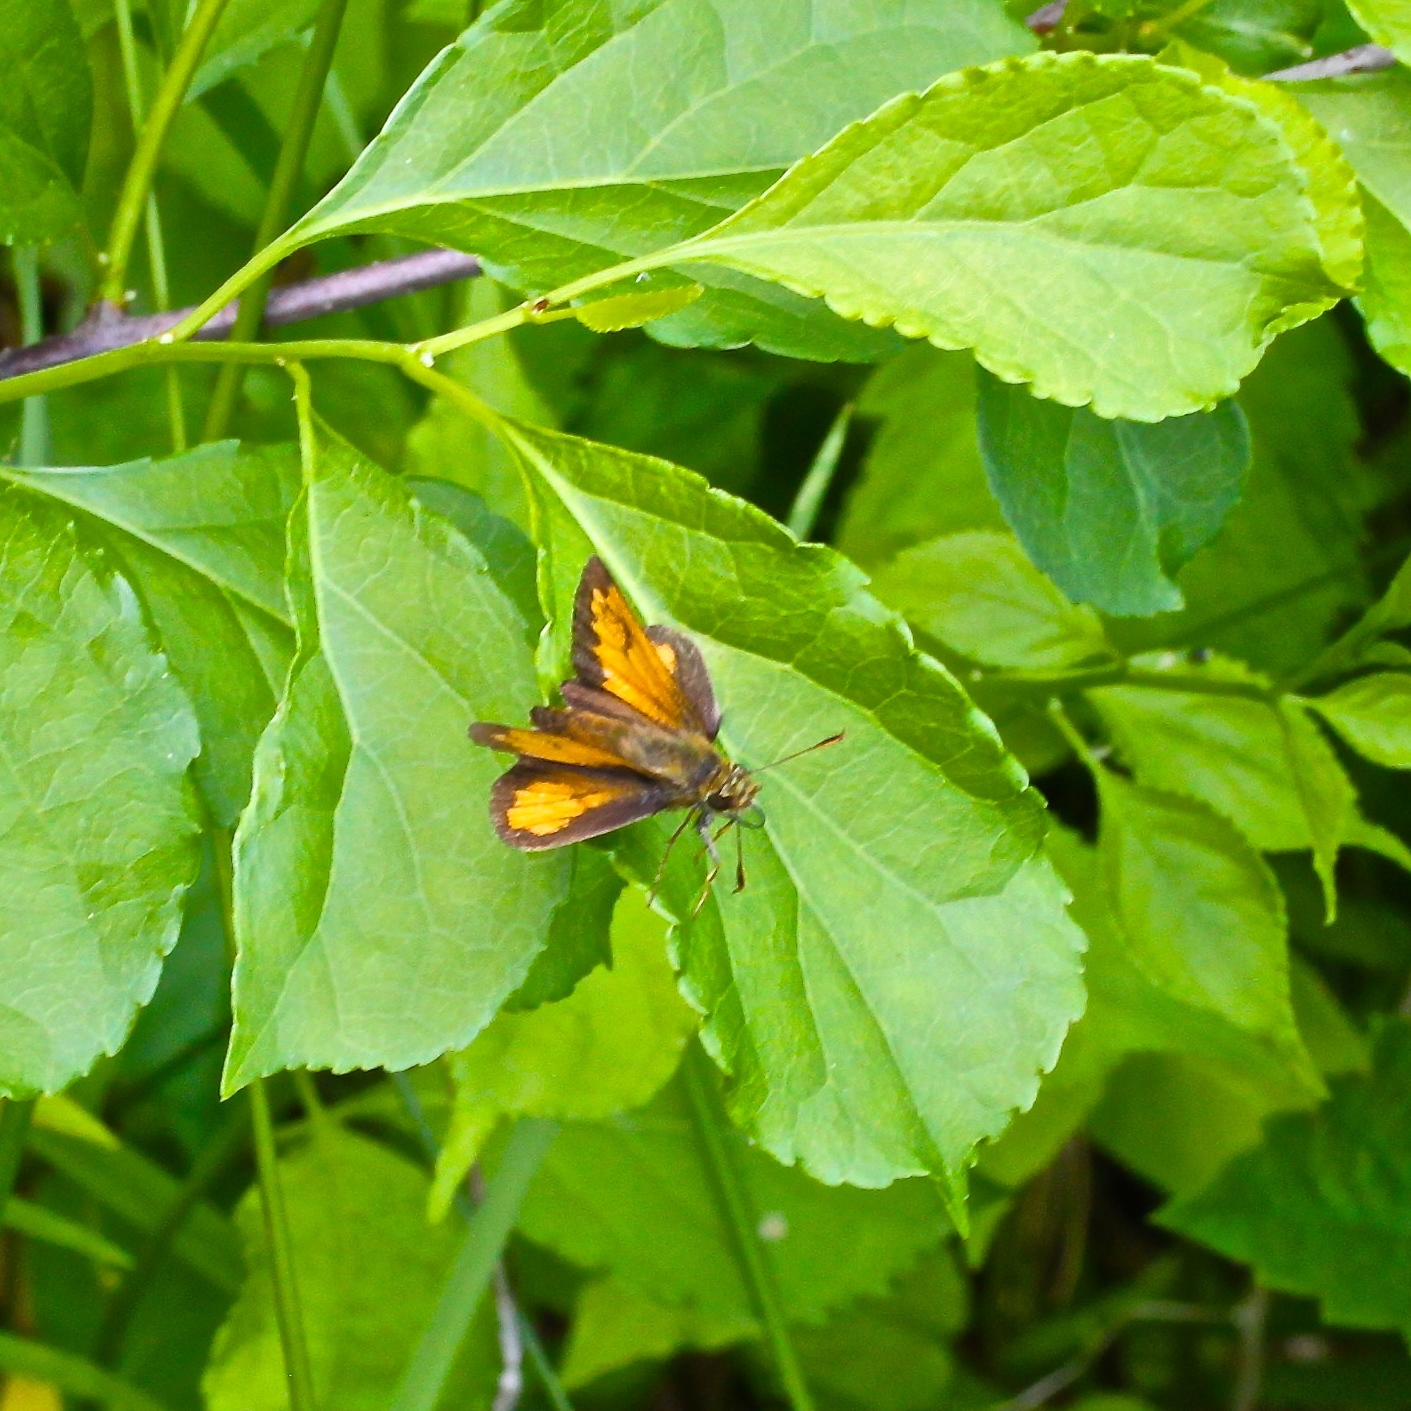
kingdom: Animalia
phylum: Arthropoda
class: Insecta
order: Lepidoptera
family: Hesperiidae
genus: Lon
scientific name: Lon hobomok
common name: Hobomok skipper
